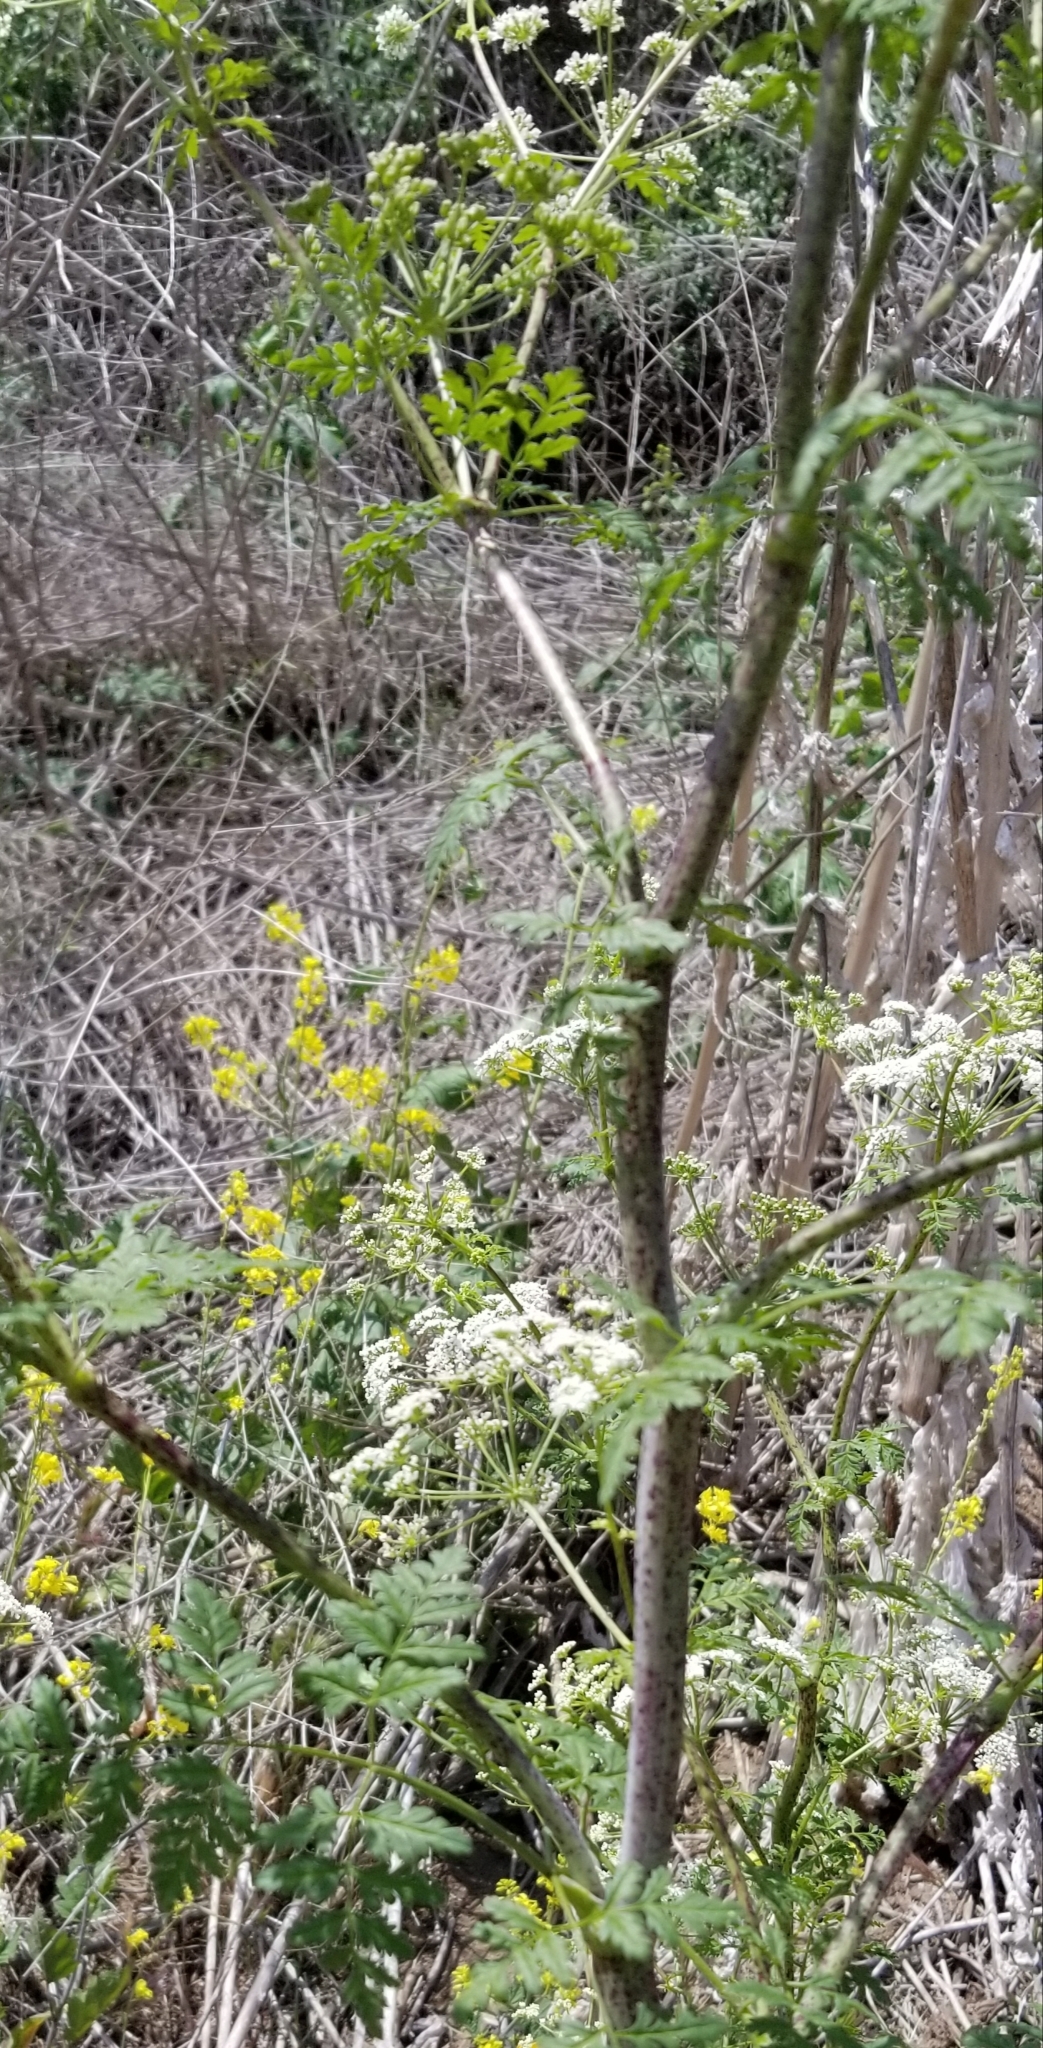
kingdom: Plantae
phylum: Tracheophyta
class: Magnoliopsida
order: Apiales
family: Apiaceae
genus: Conium
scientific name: Conium maculatum
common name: Hemlock
